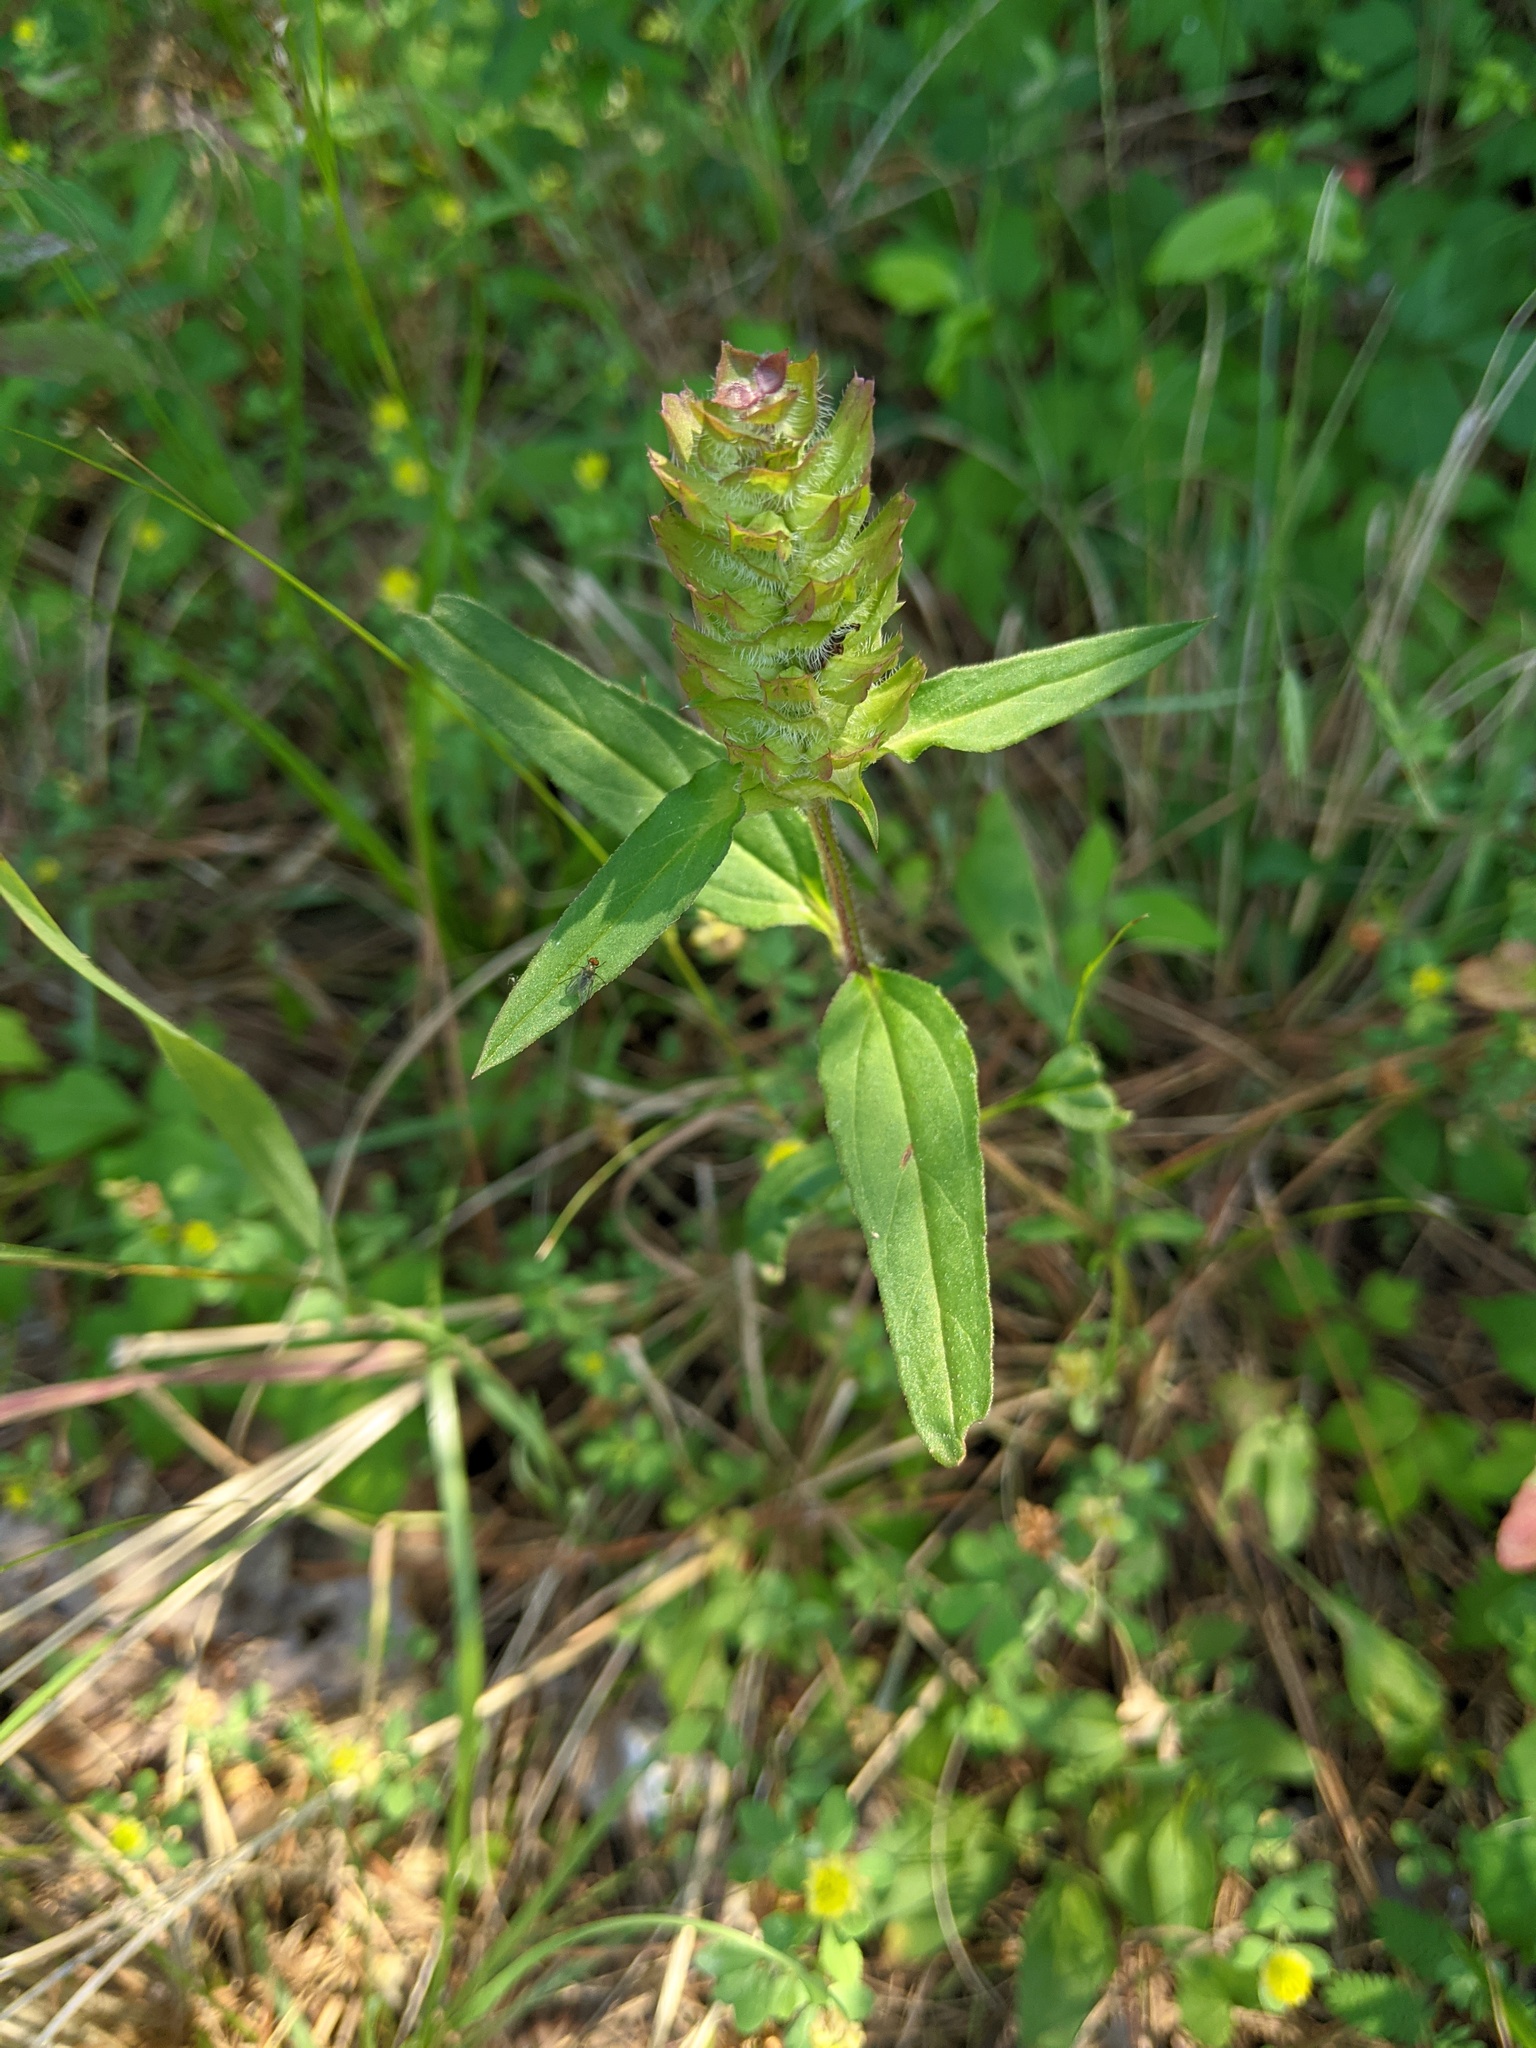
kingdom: Plantae
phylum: Tracheophyta
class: Magnoliopsida
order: Lamiales
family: Lamiaceae
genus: Prunella
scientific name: Prunella vulgaris
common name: Heal-all
